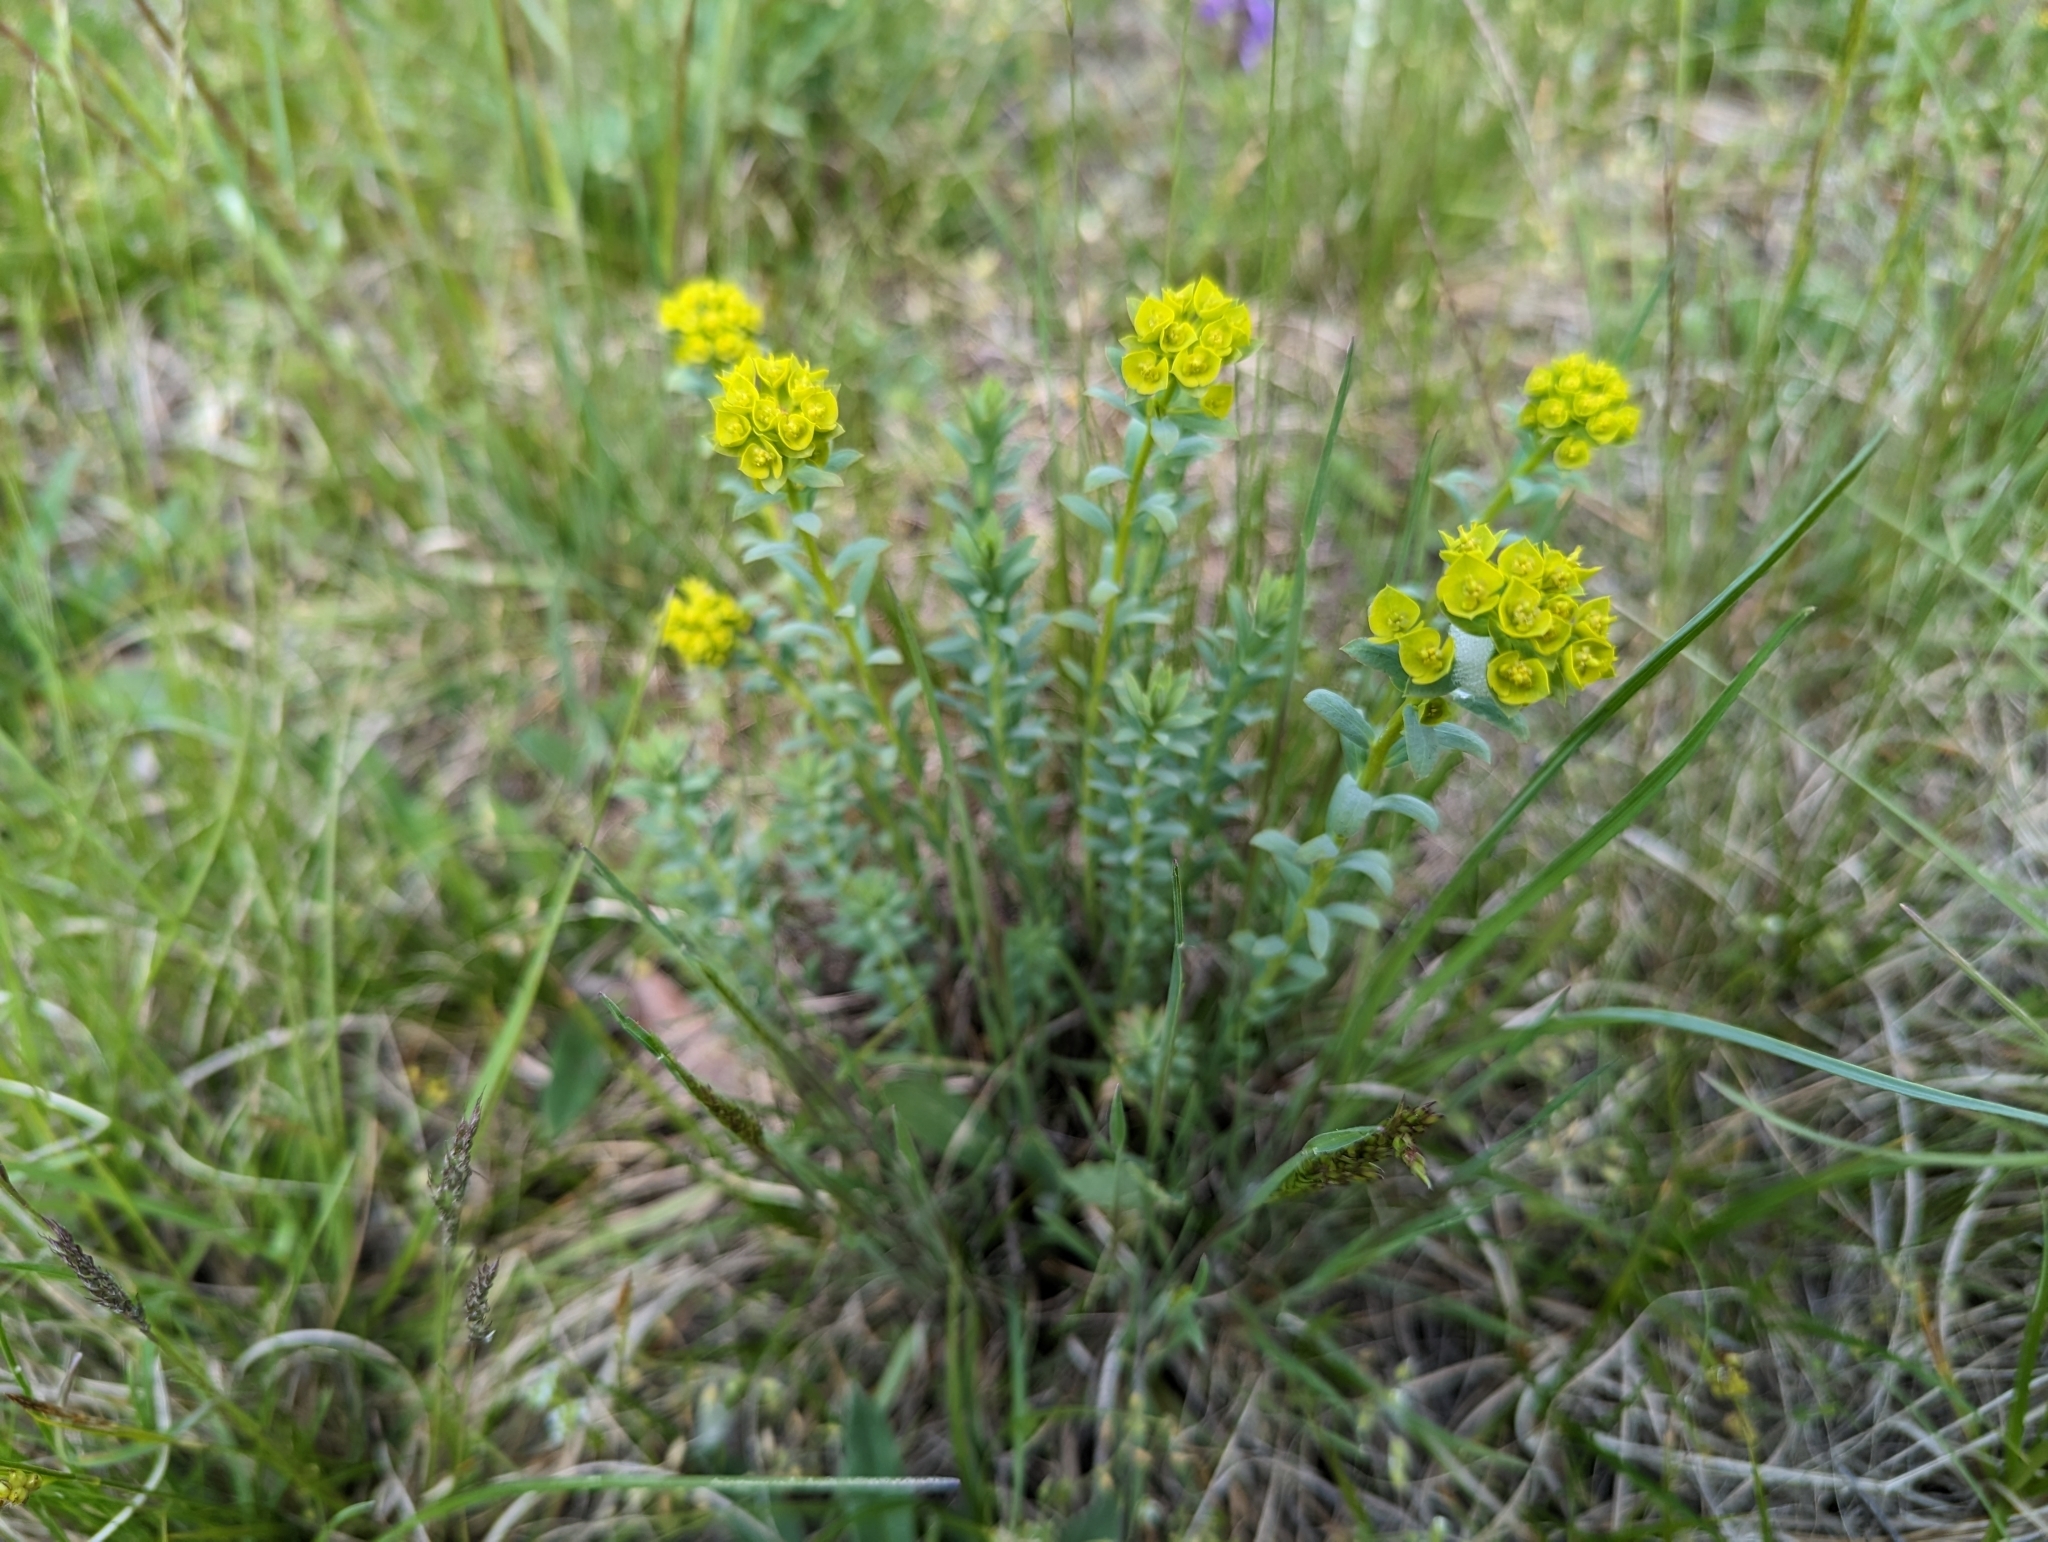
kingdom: Plantae
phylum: Tracheophyta
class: Magnoliopsida
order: Malpighiales
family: Euphorbiaceae
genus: Euphorbia
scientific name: Euphorbia seguieriana
